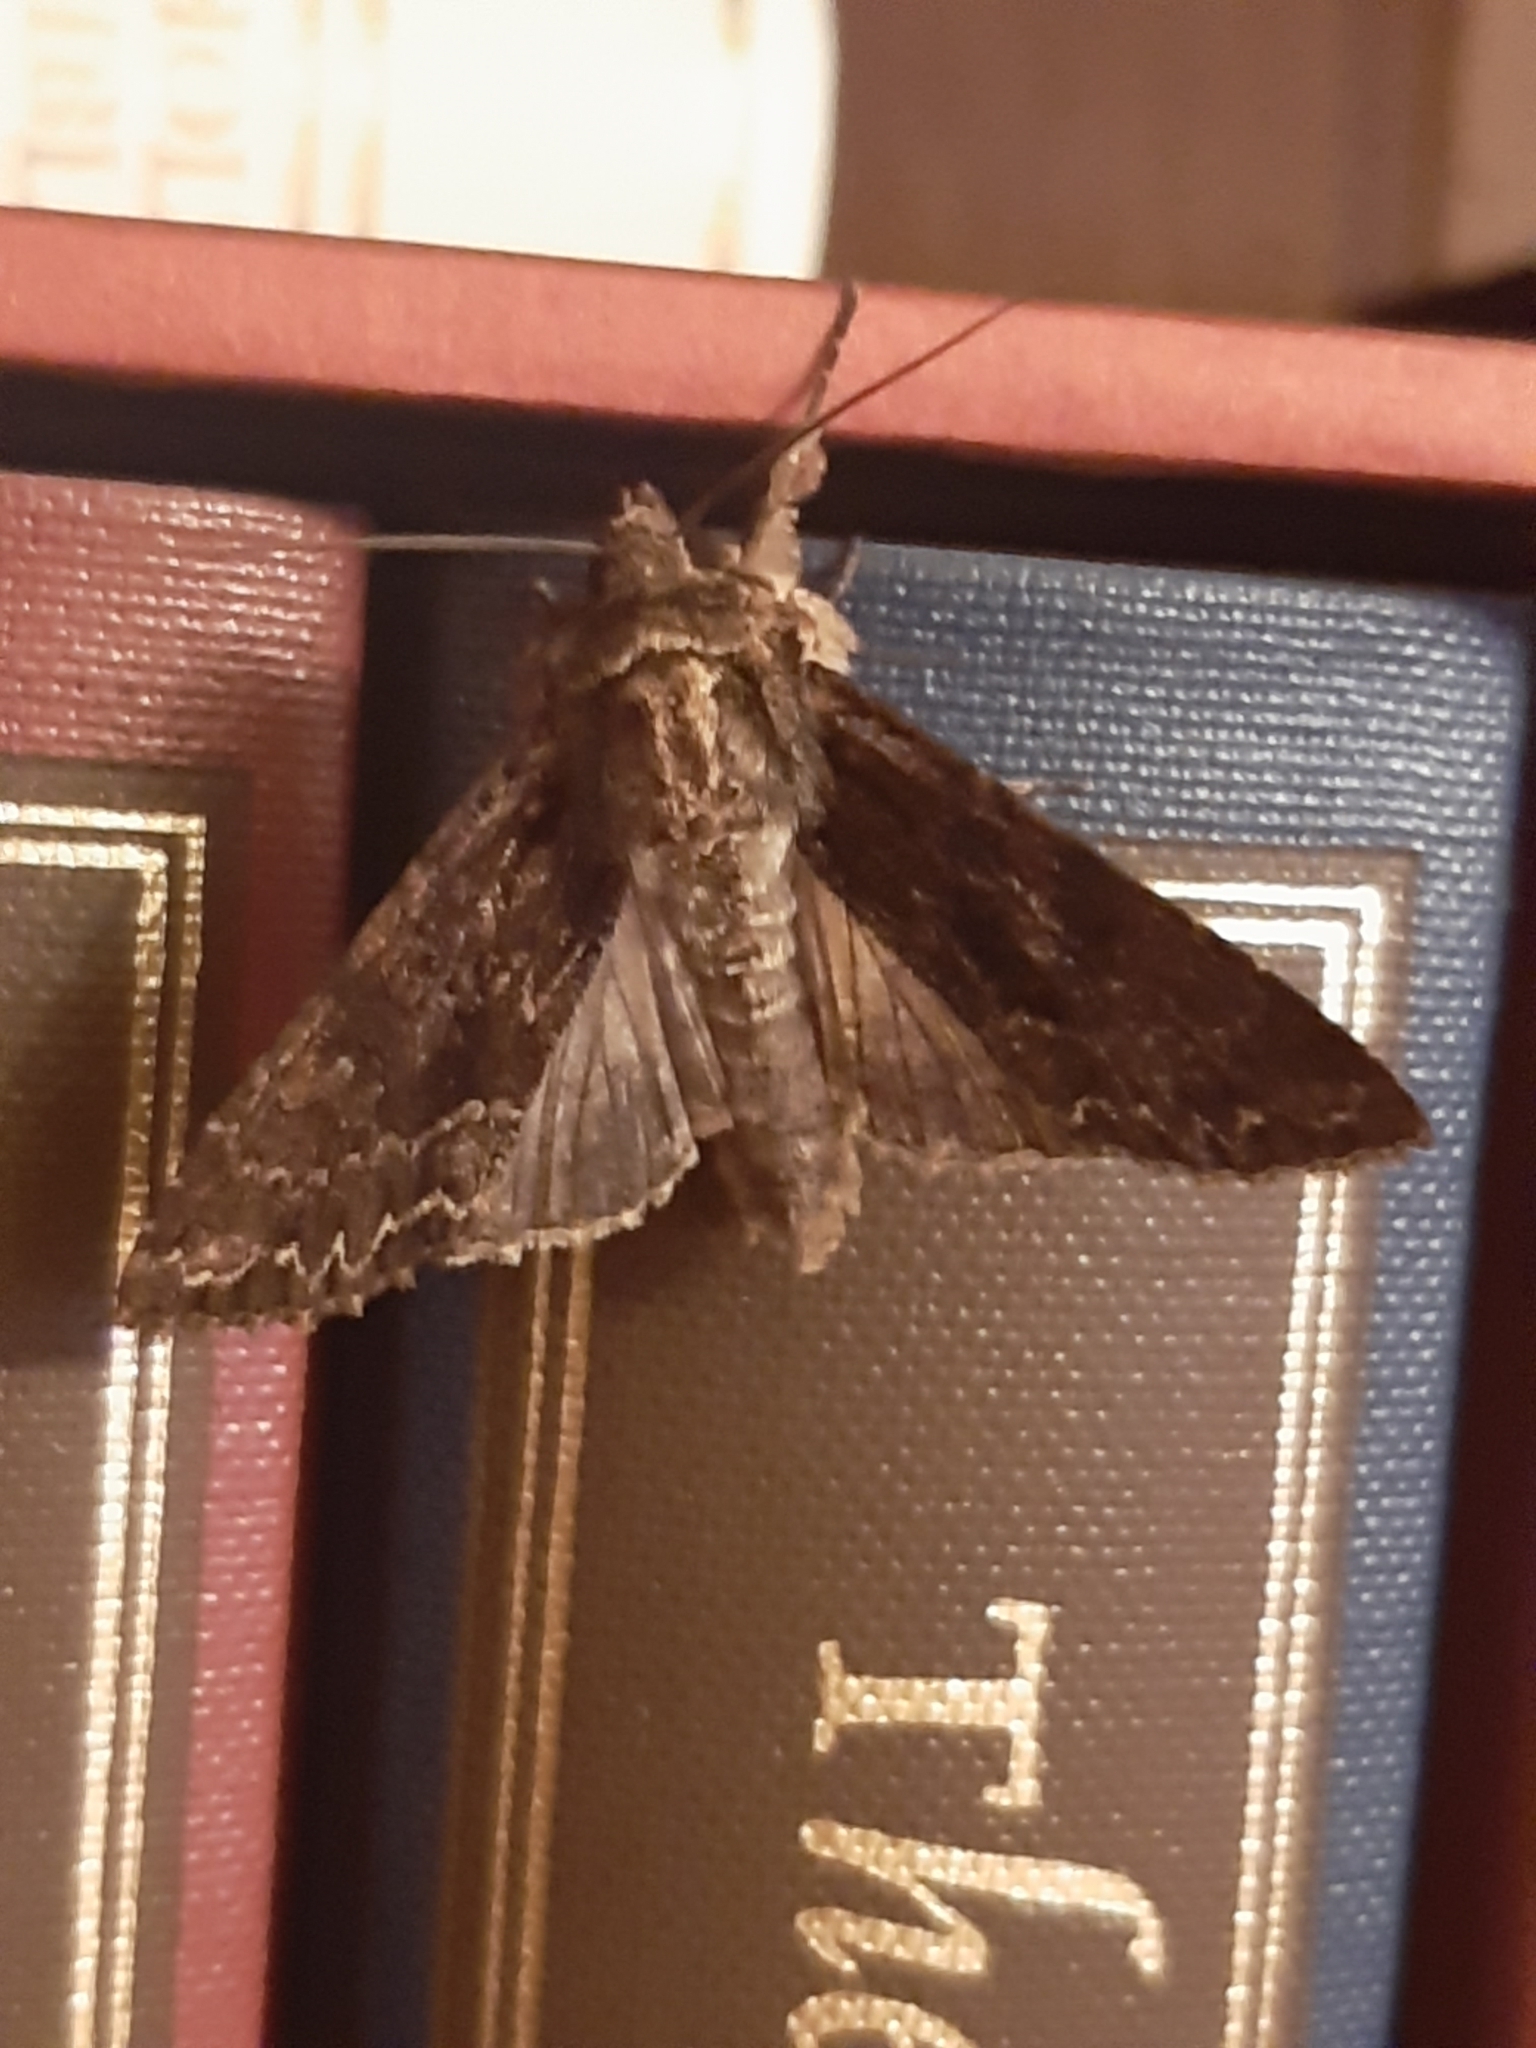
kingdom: Animalia
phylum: Arthropoda
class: Insecta
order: Lepidoptera
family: Noctuidae
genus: Apamea
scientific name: Apamea monoglypha
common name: Dark arches
